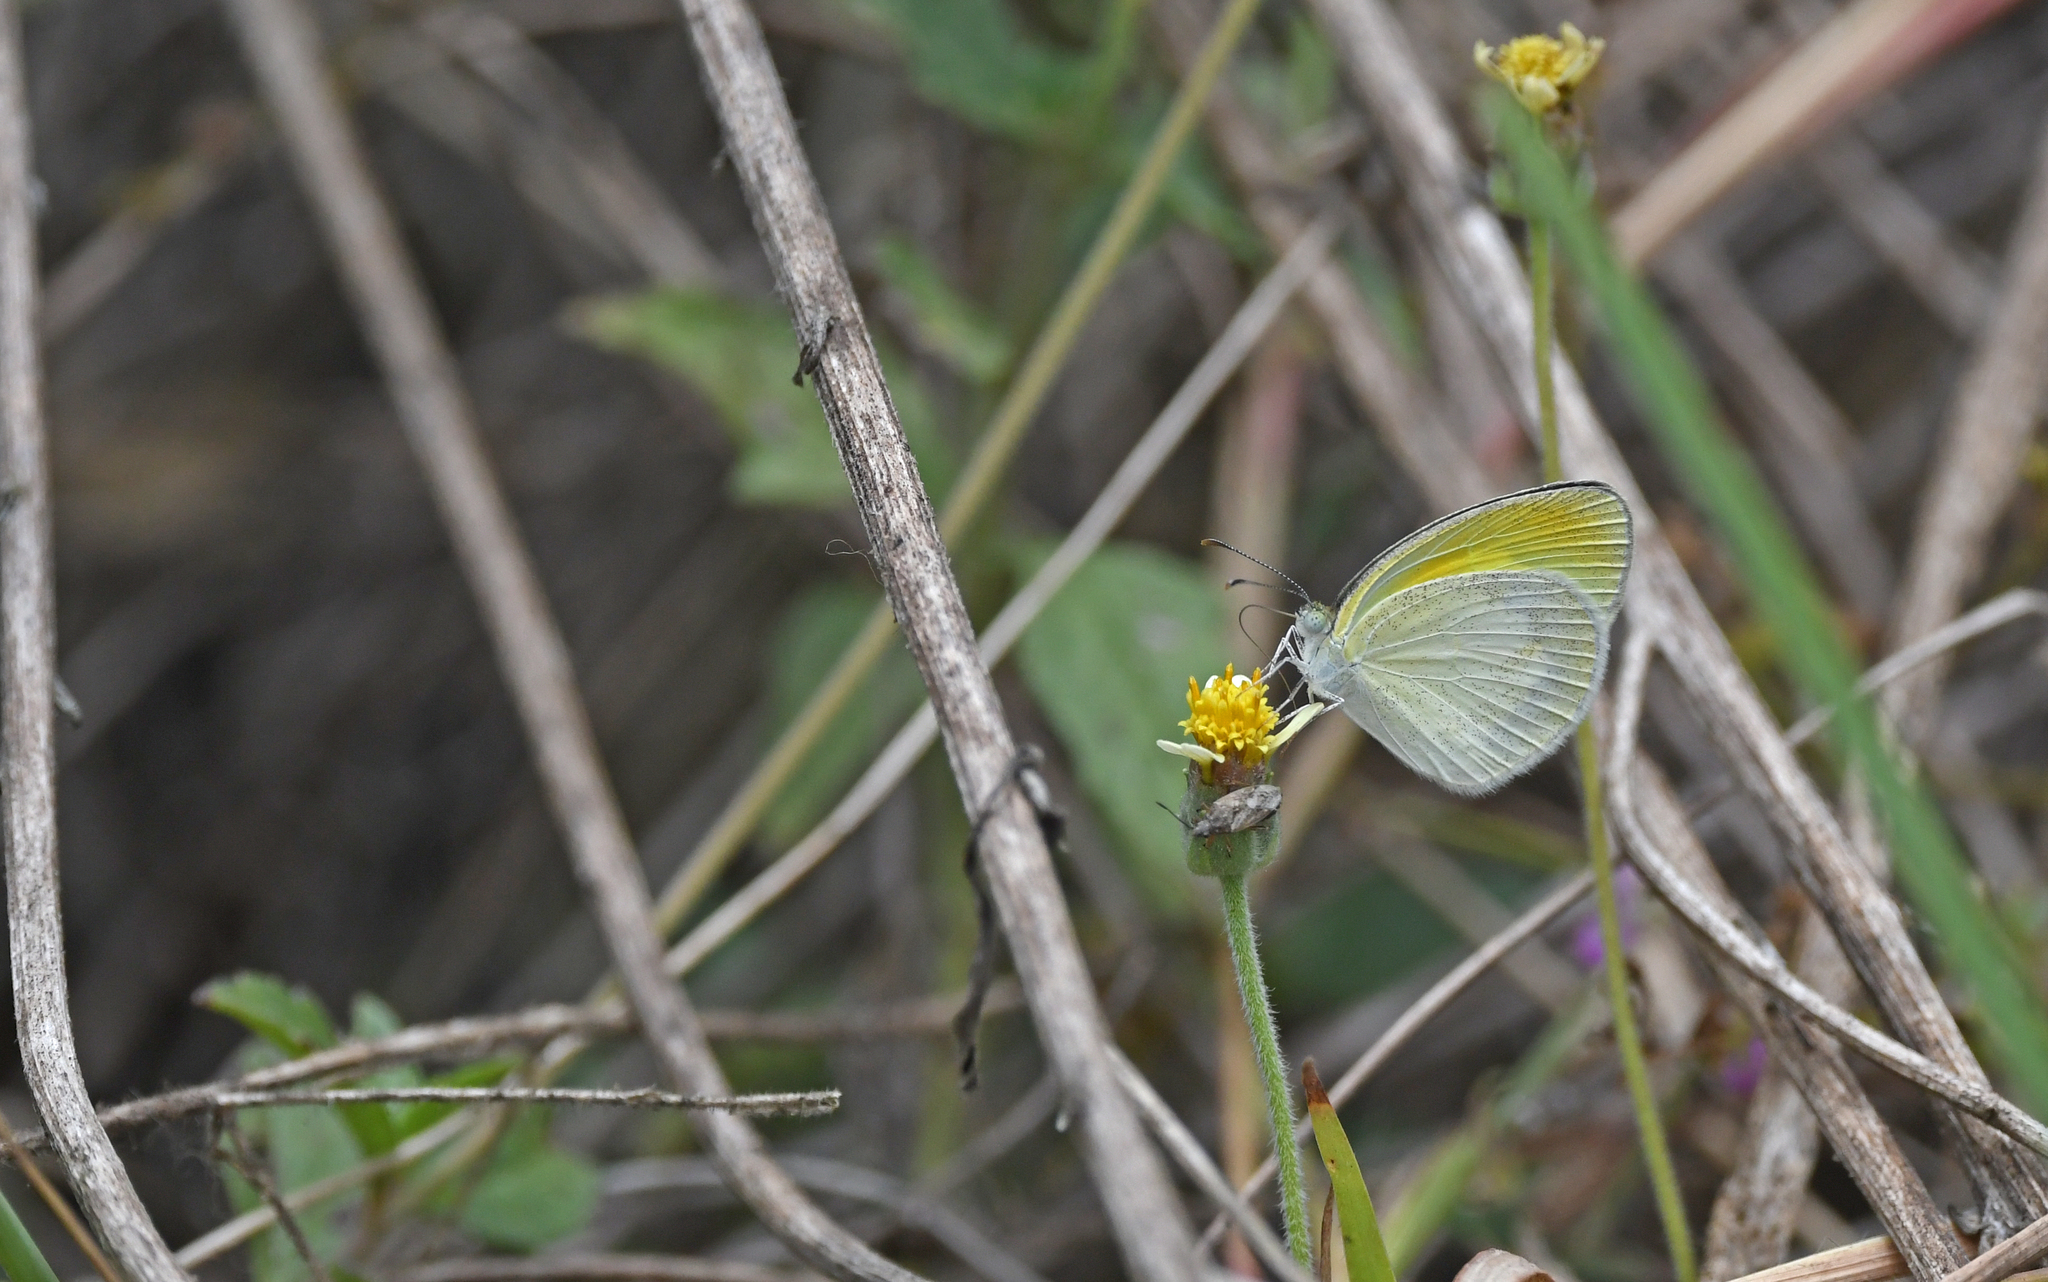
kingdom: Animalia
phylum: Arthropoda
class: Insecta
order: Lepidoptera
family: Pieridae
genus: Eurema
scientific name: Eurema elathea
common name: Banded yellow
